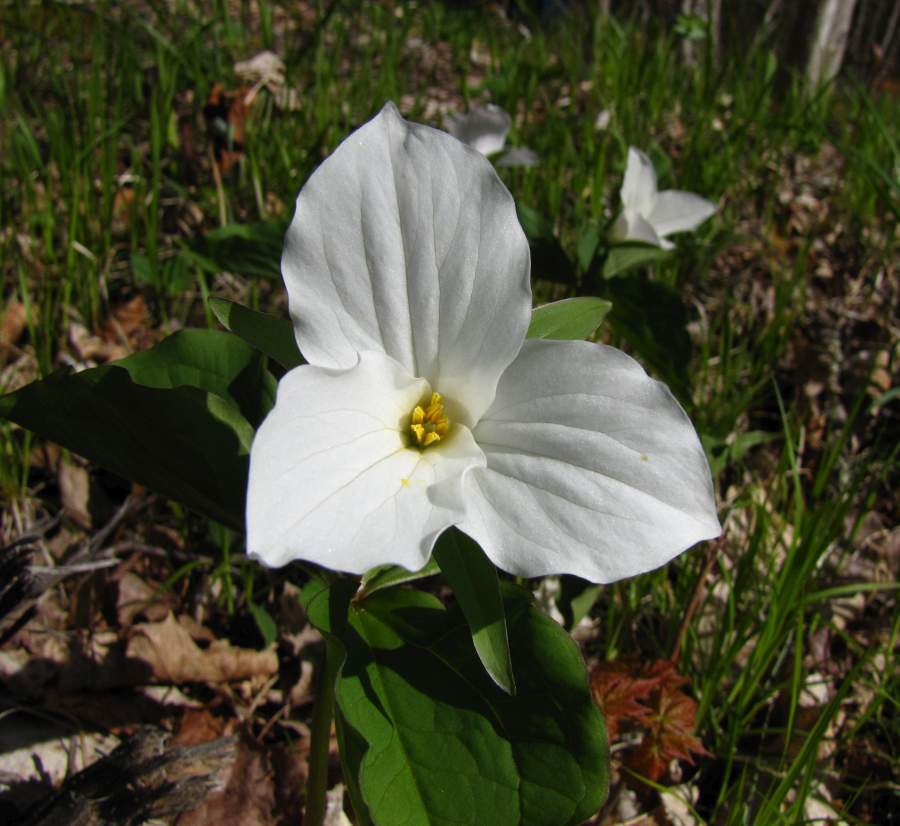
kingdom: Plantae
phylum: Tracheophyta
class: Liliopsida
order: Liliales
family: Melanthiaceae
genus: Trillium
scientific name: Trillium grandiflorum
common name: Great white trillium
